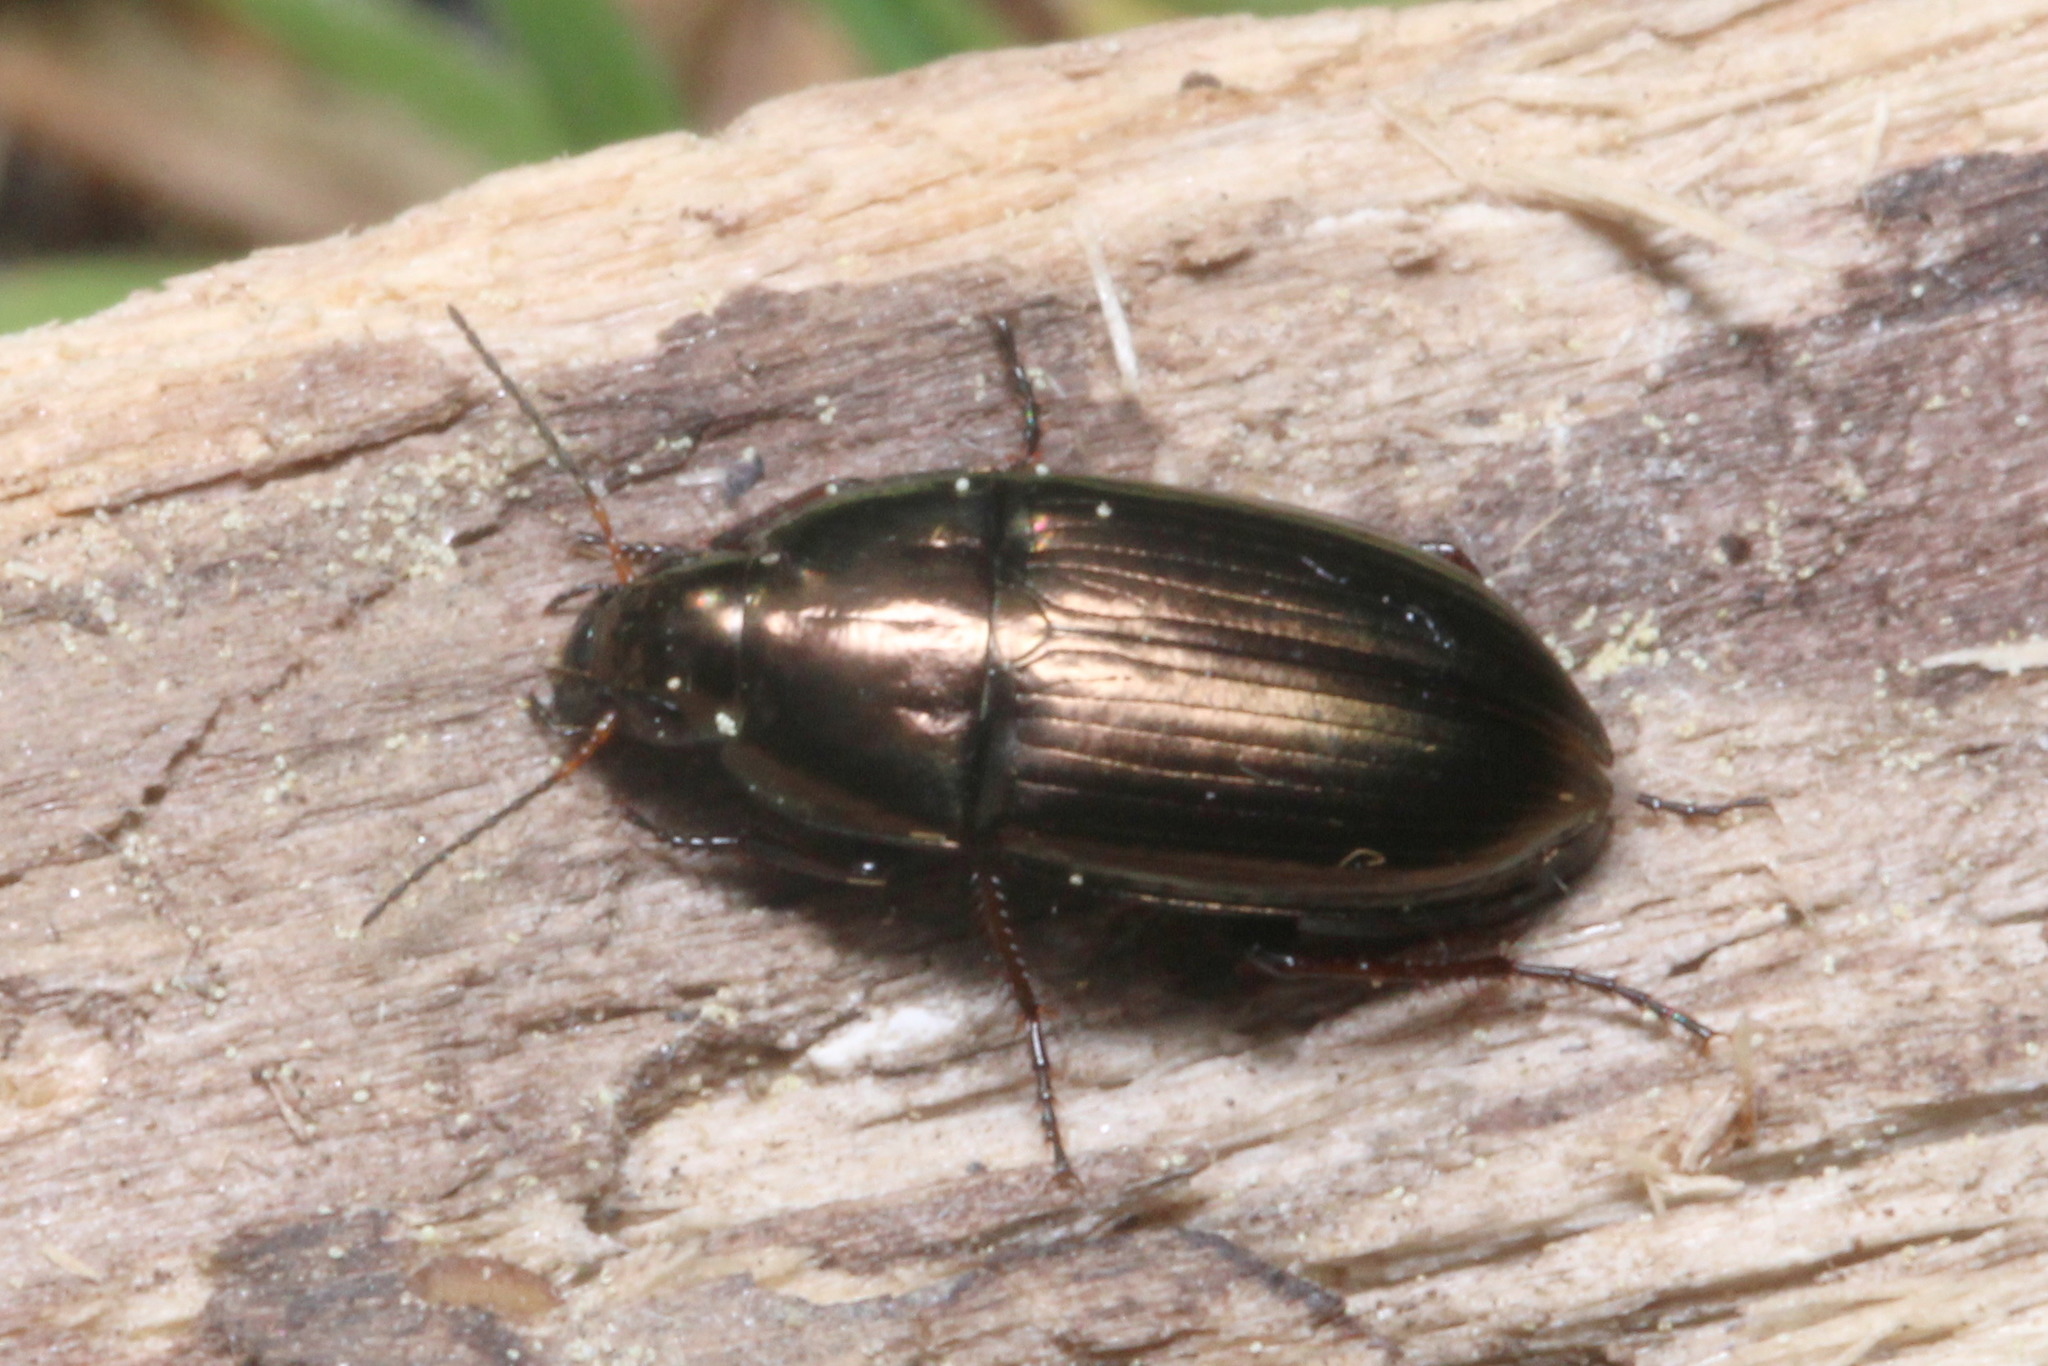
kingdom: Animalia
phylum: Arthropoda
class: Insecta
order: Coleoptera
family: Carabidae
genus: Amara
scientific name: Amara aenea
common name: Common sun beetle
